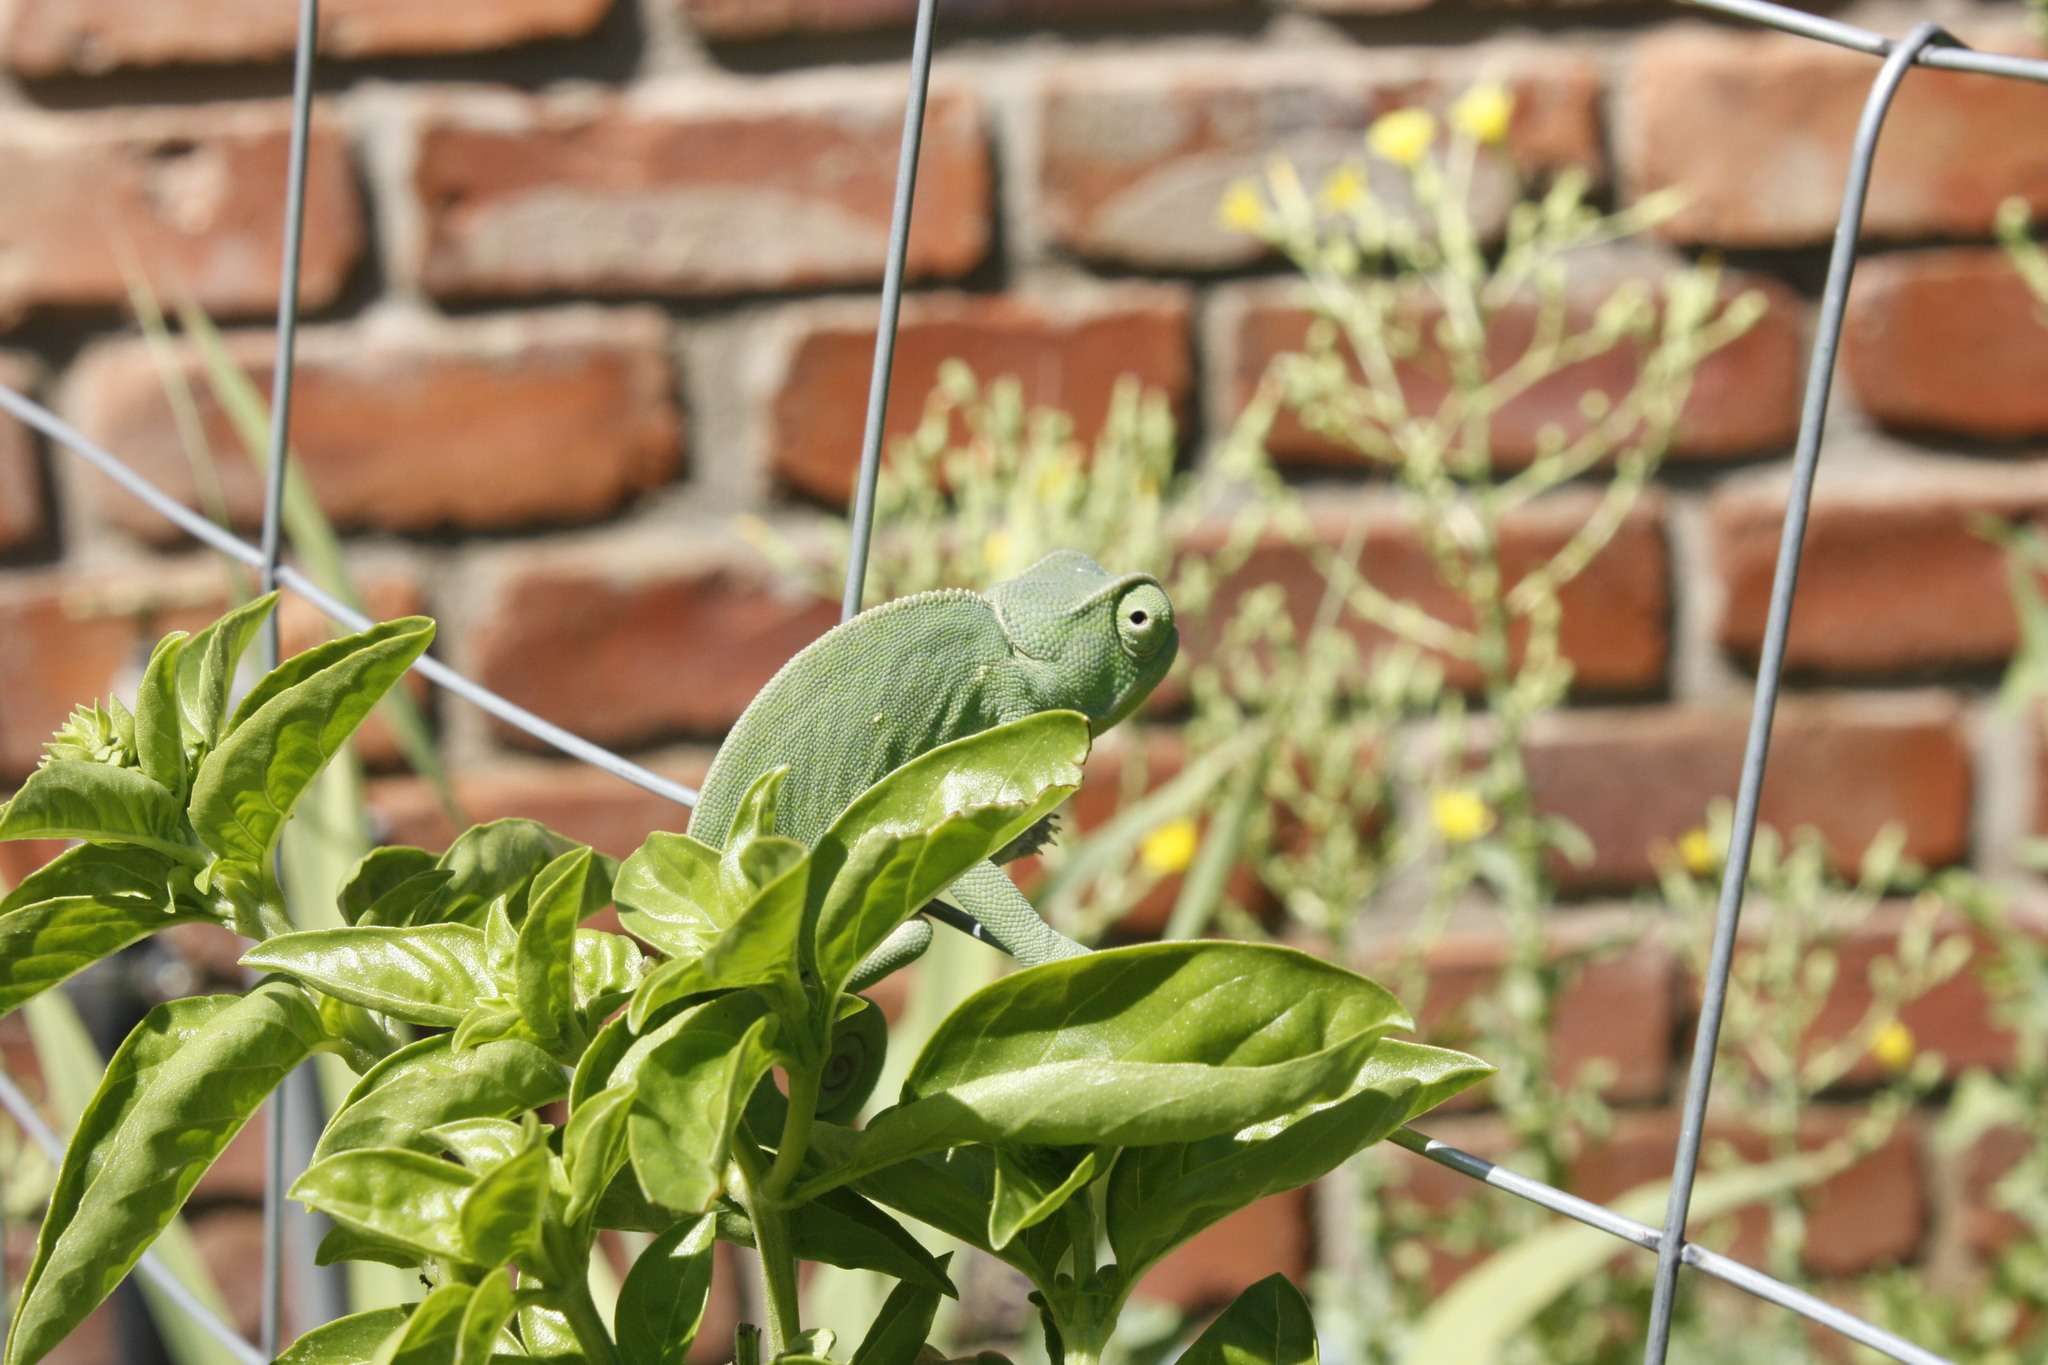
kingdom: Animalia
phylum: Chordata
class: Squamata
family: Chamaeleonidae
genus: Chamaeleo
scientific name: Chamaeleo dilepis
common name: Flapneck chameleon
